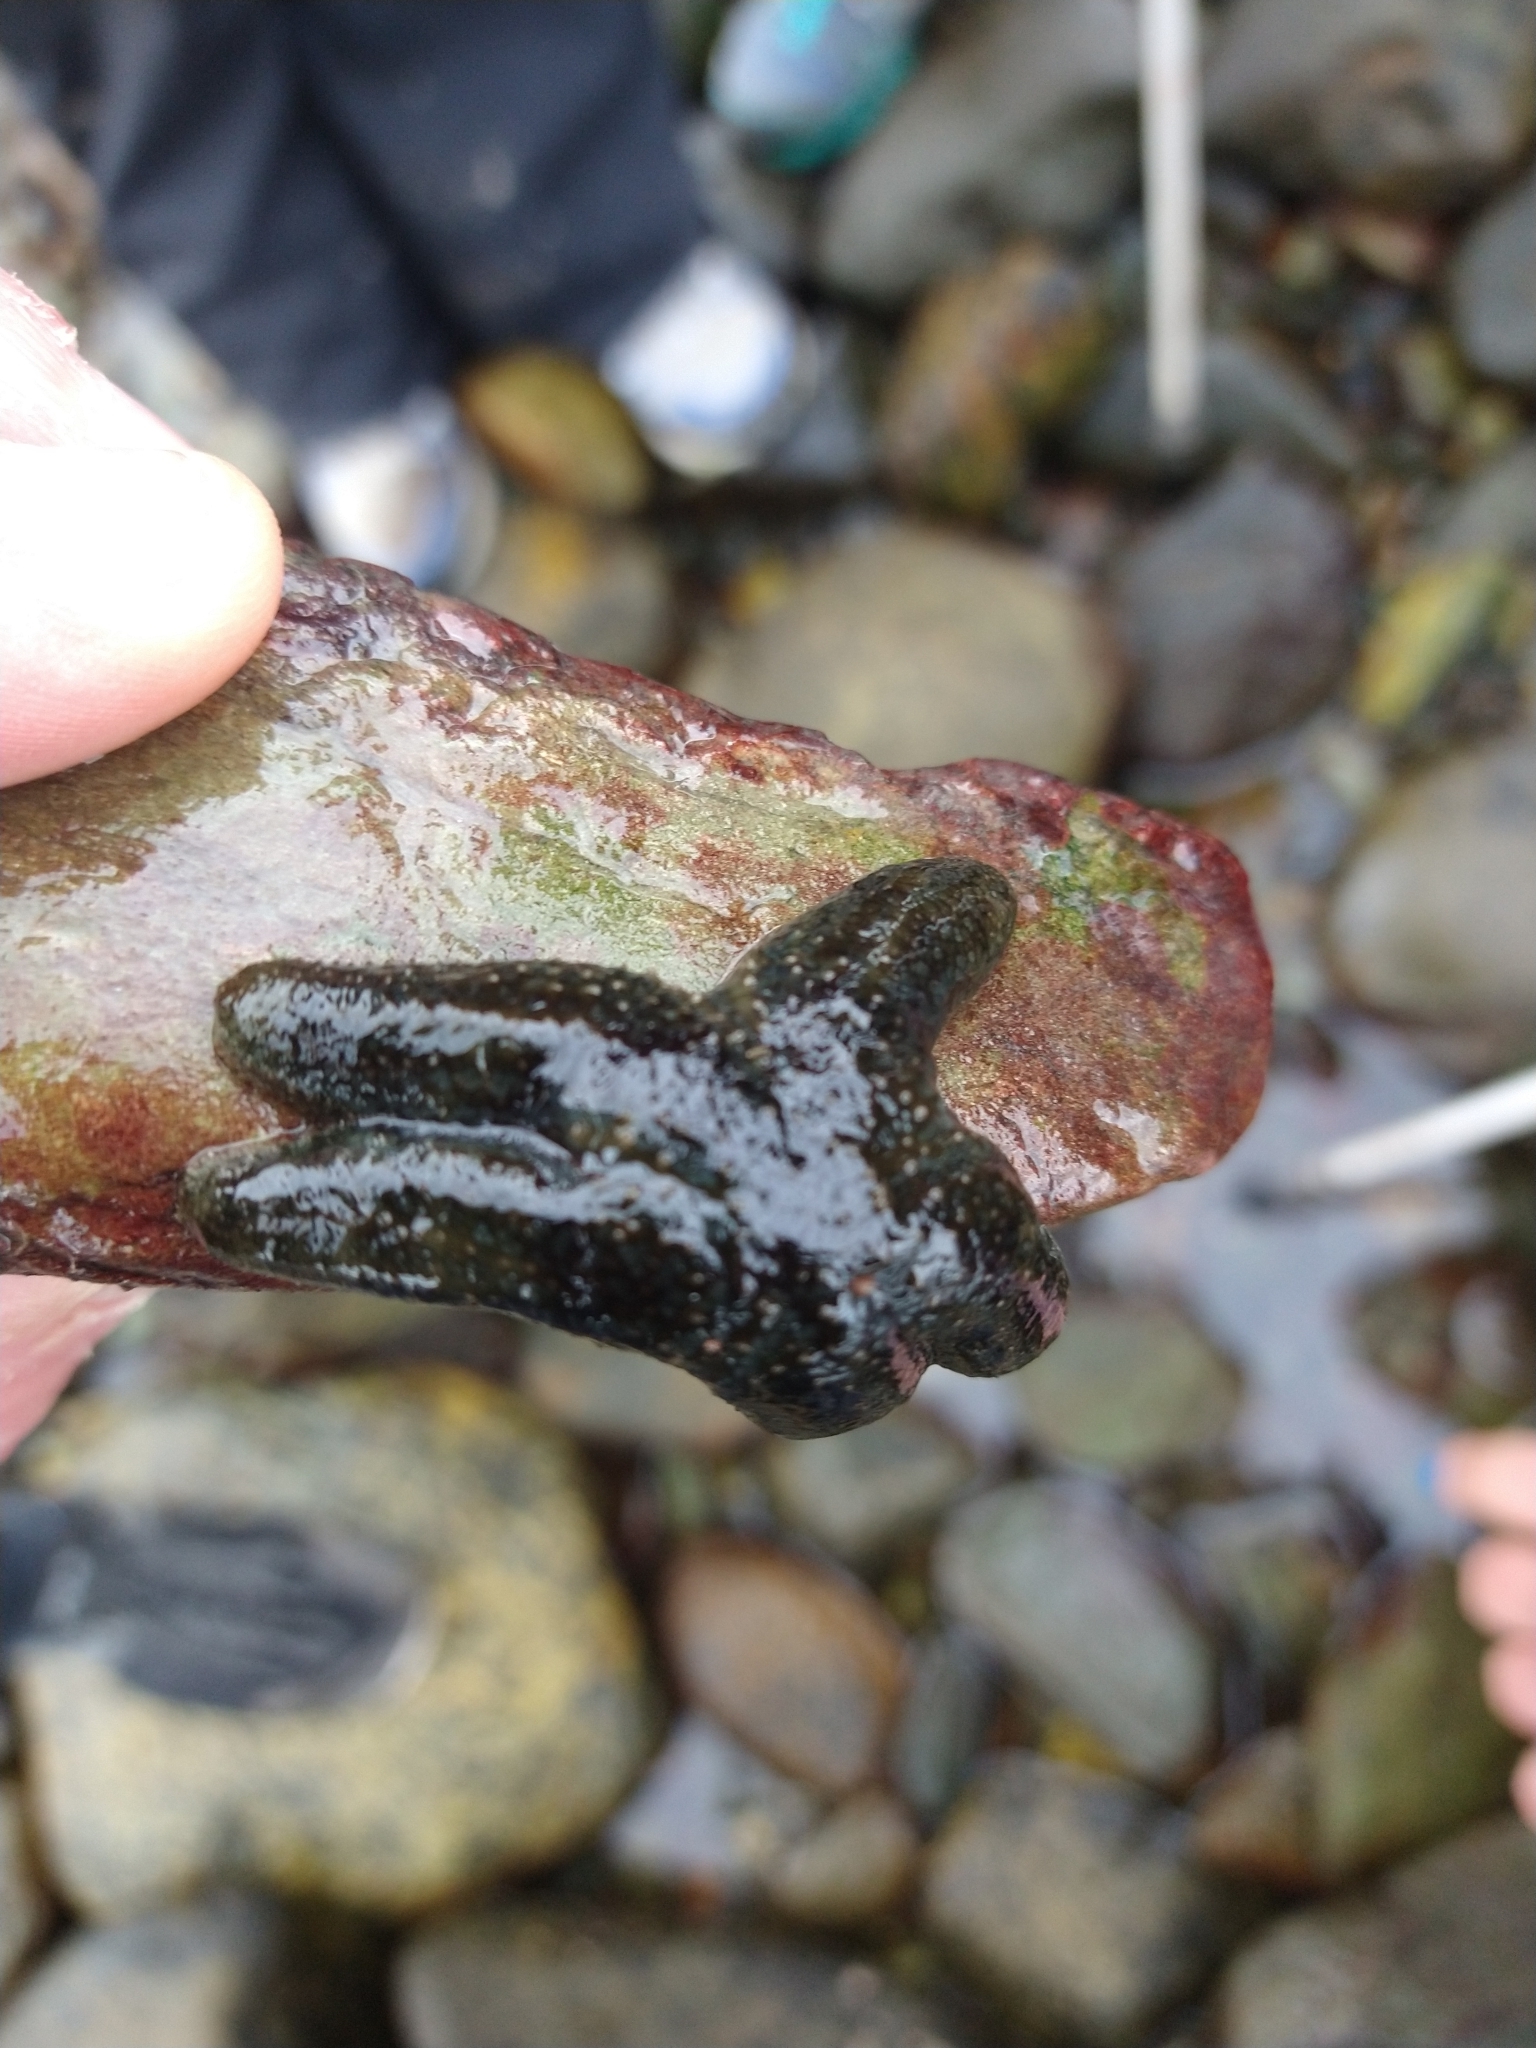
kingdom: Animalia
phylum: Echinodermata
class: Asteroidea
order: Forcipulatida
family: Asteriidae
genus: Anasterias
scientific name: Anasterias antarctica
